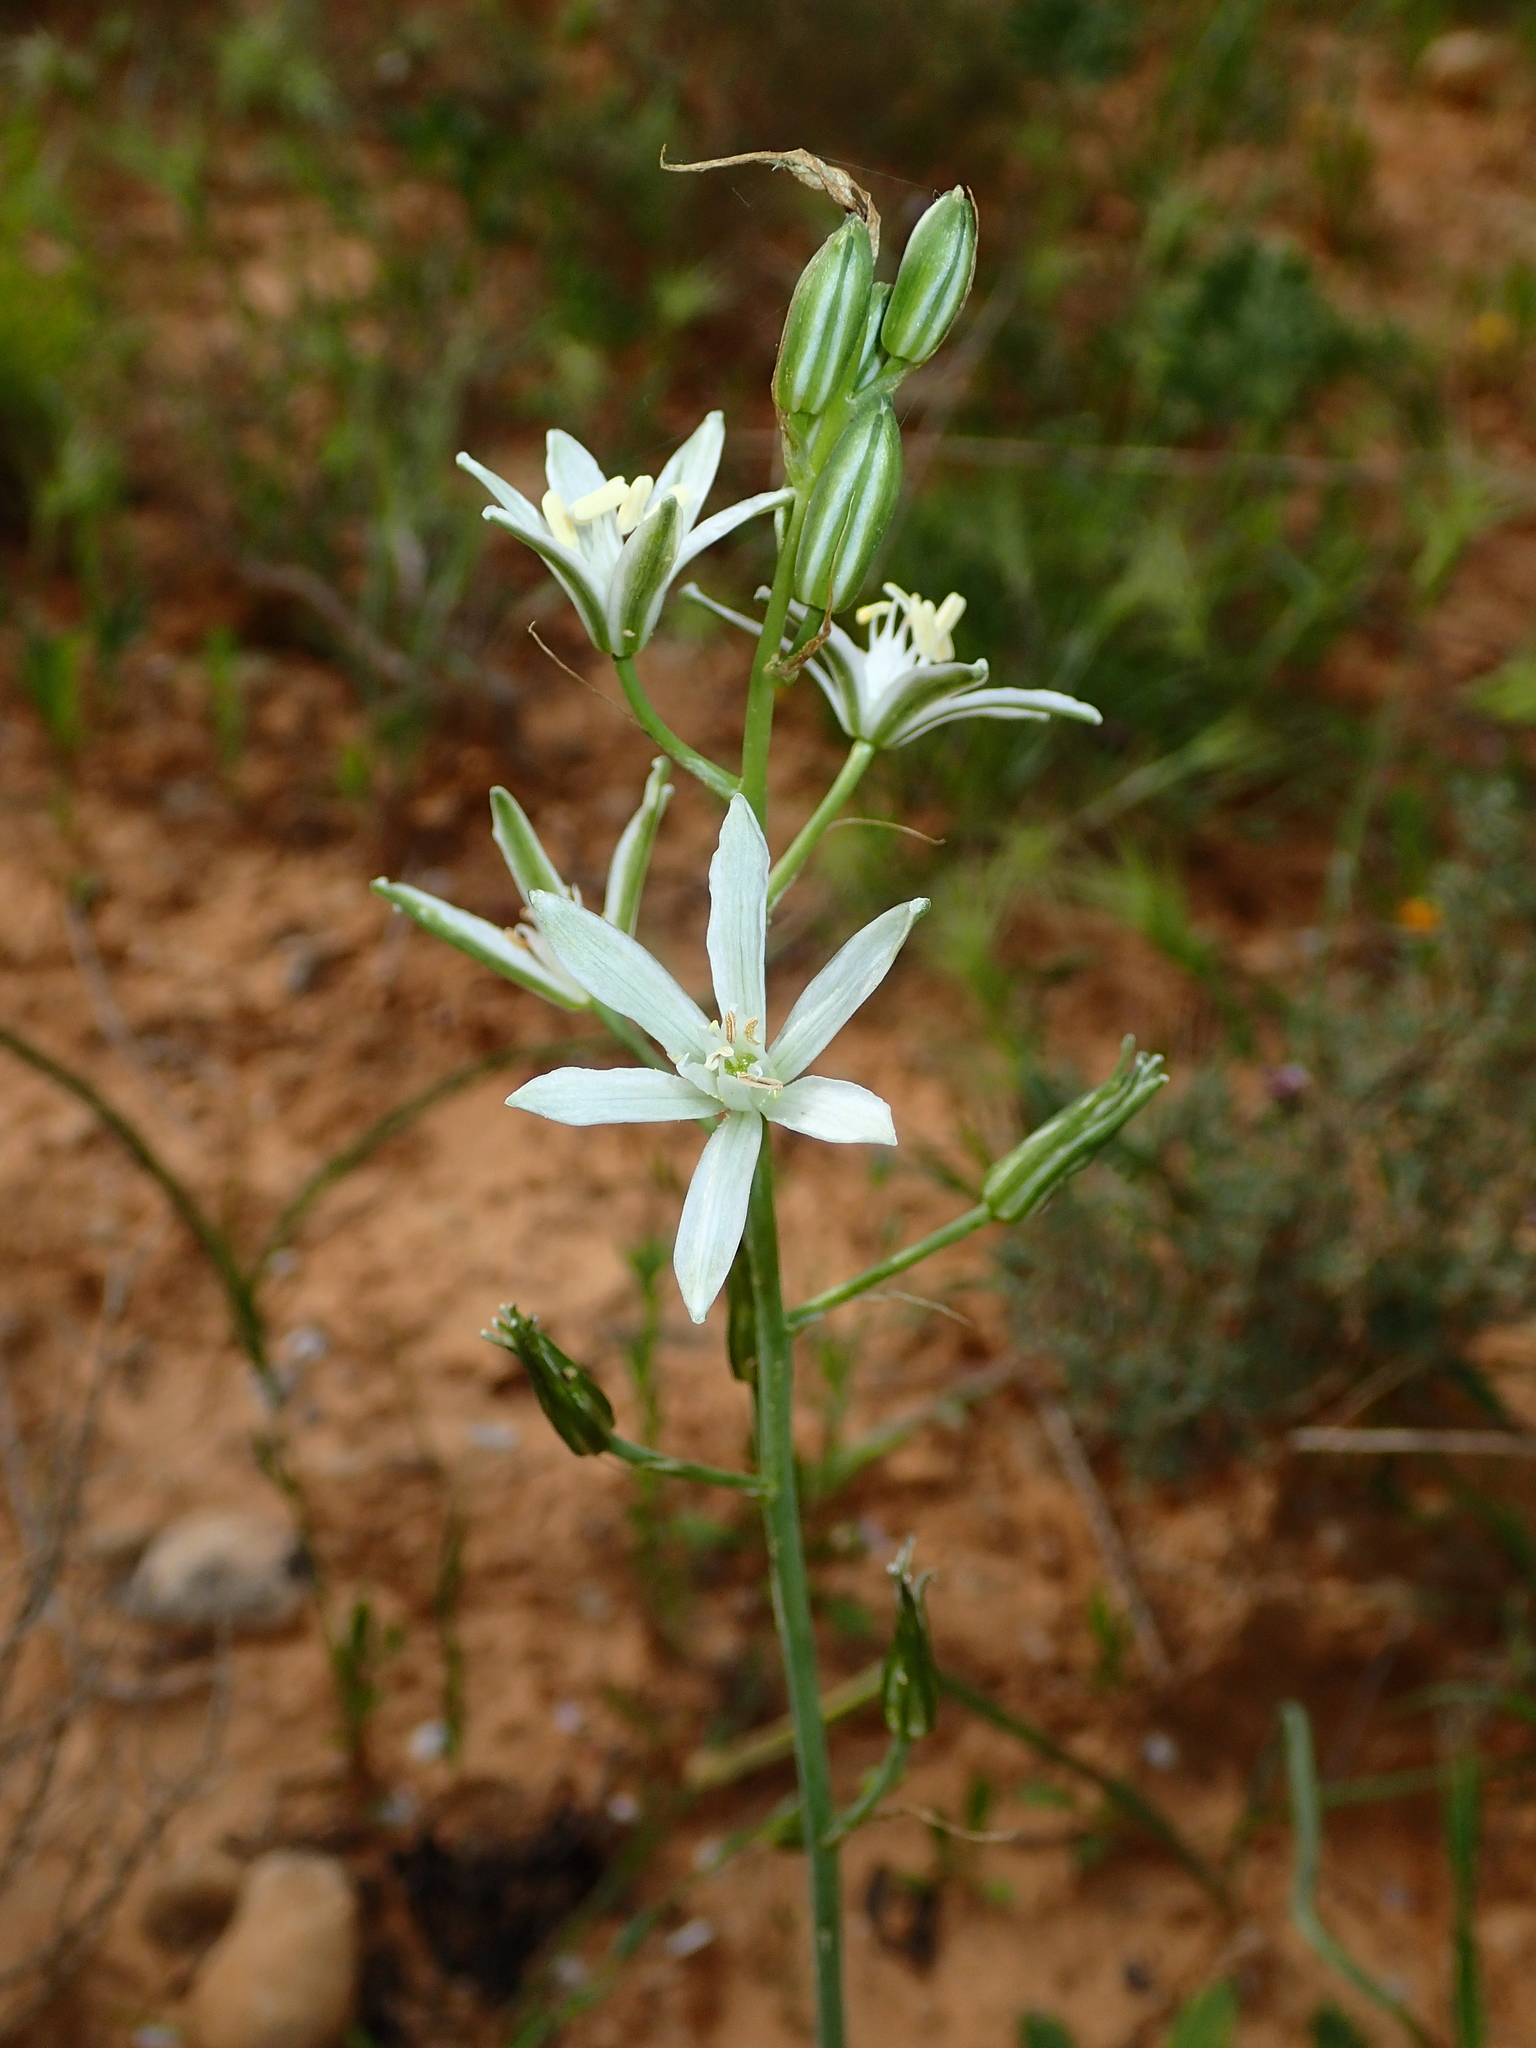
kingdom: Plantae
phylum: Tracheophyta
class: Liliopsida
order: Asparagales
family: Asparagaceae
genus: Ornithogalum
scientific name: Ornithogalum narbonense
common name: Bath-asparagus
